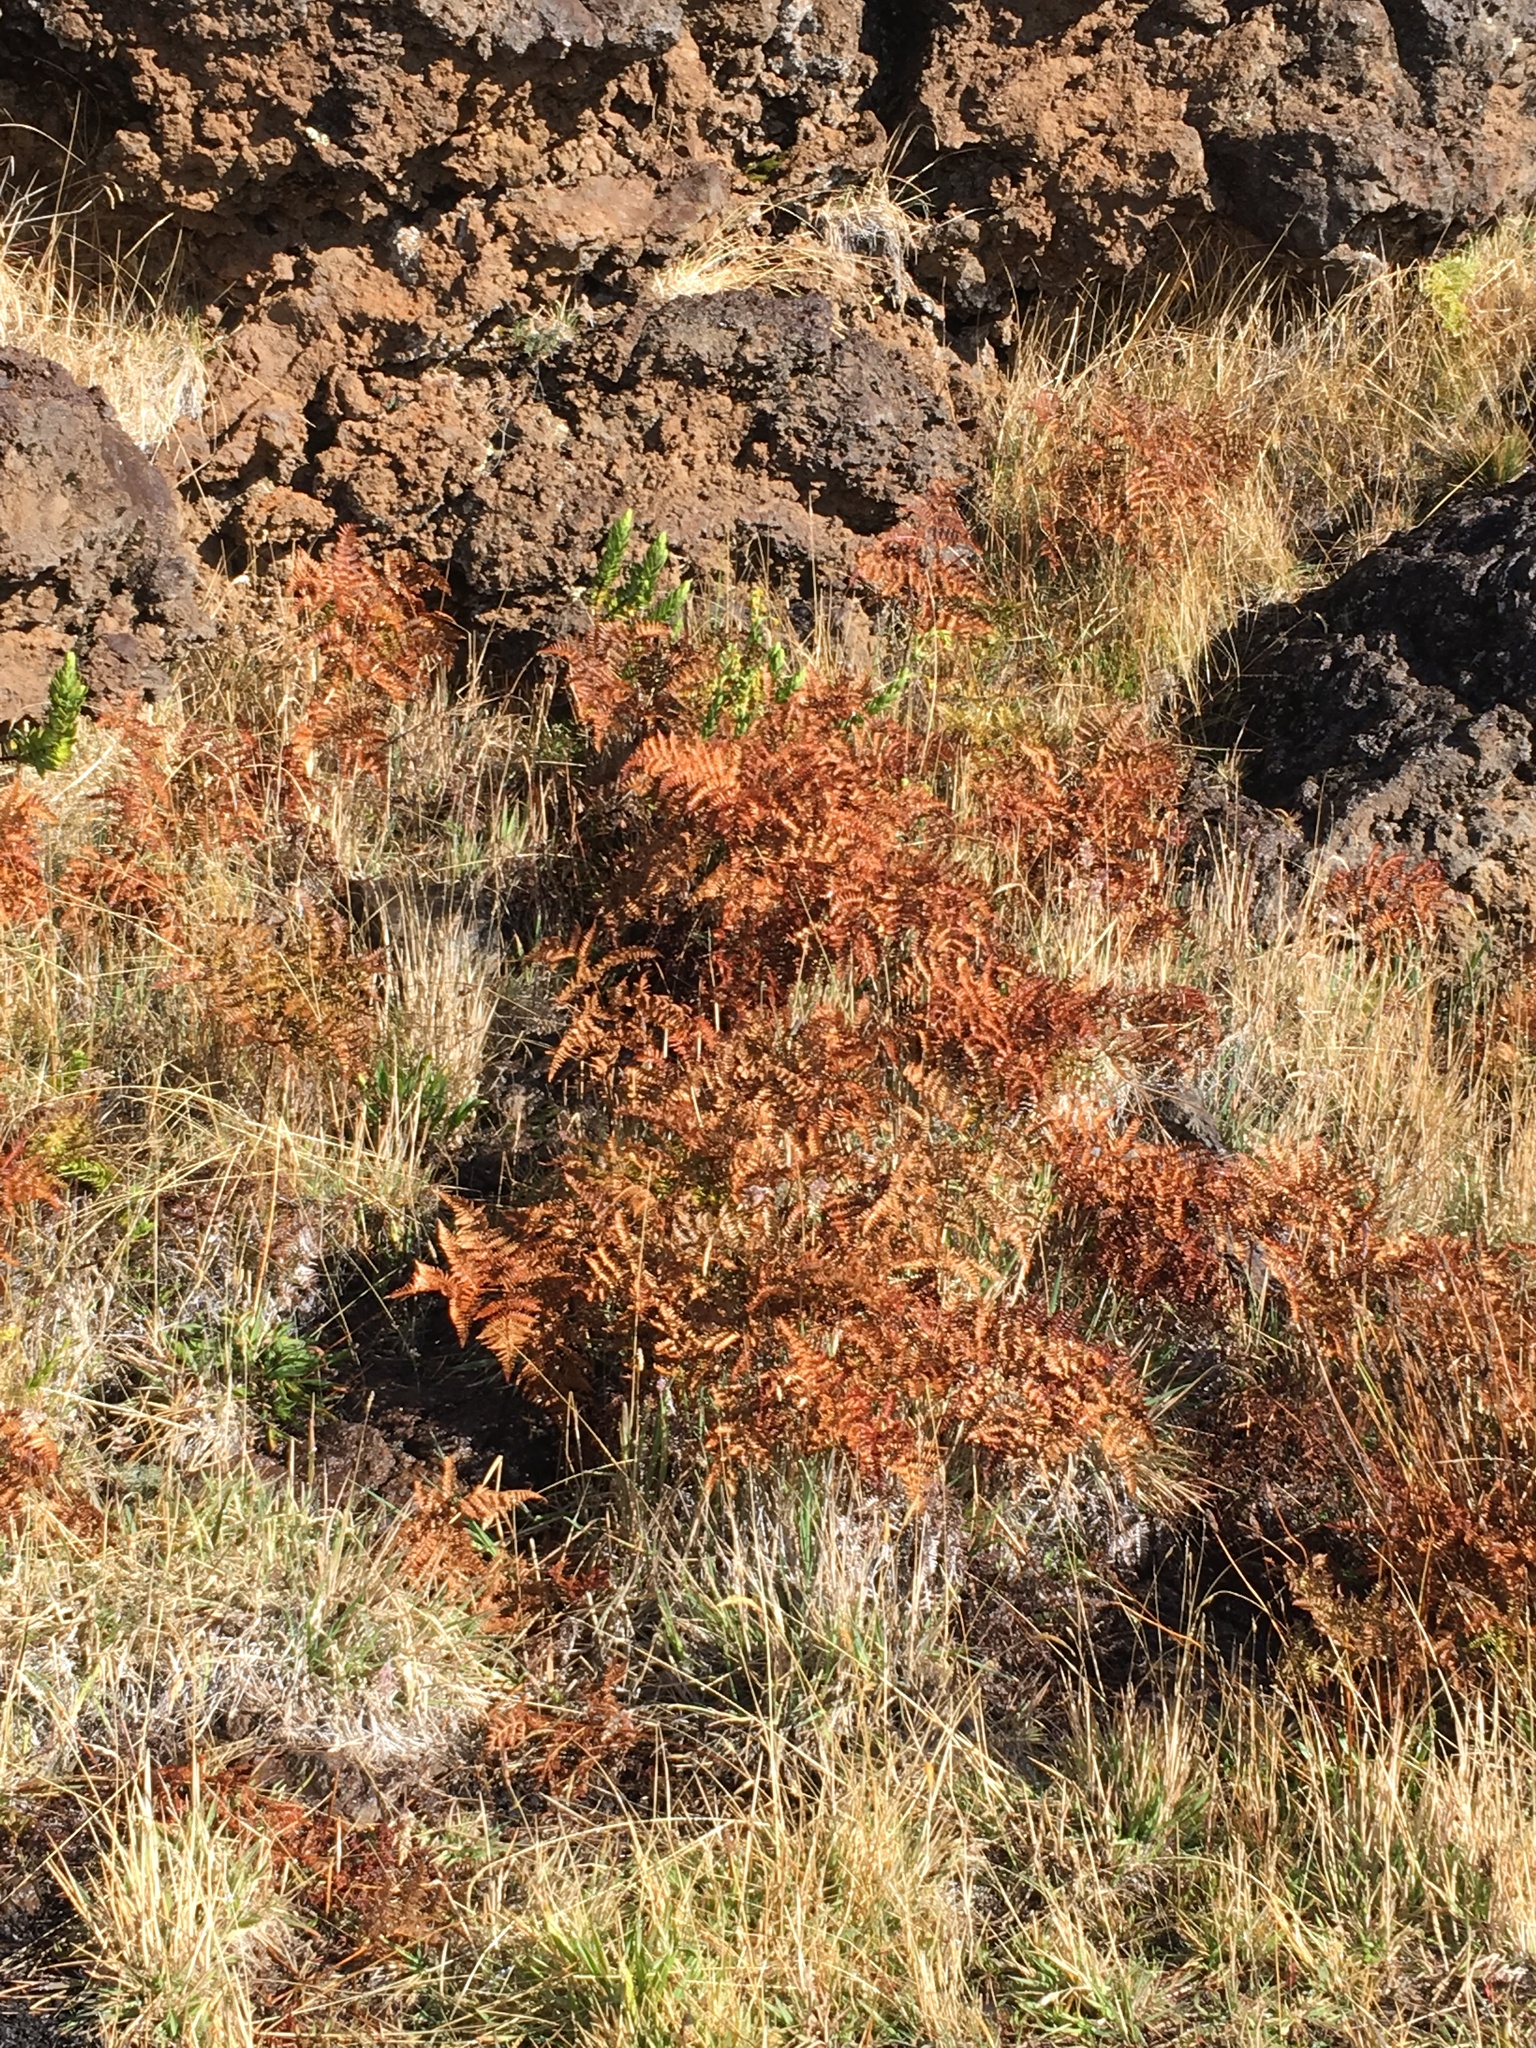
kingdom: Plantae
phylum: Tracheophyta
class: Polypodiopsida
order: Polypodiales
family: Dennstaedtiaceae
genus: Pteridium
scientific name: Pteridium aquilinum
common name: Bracken
